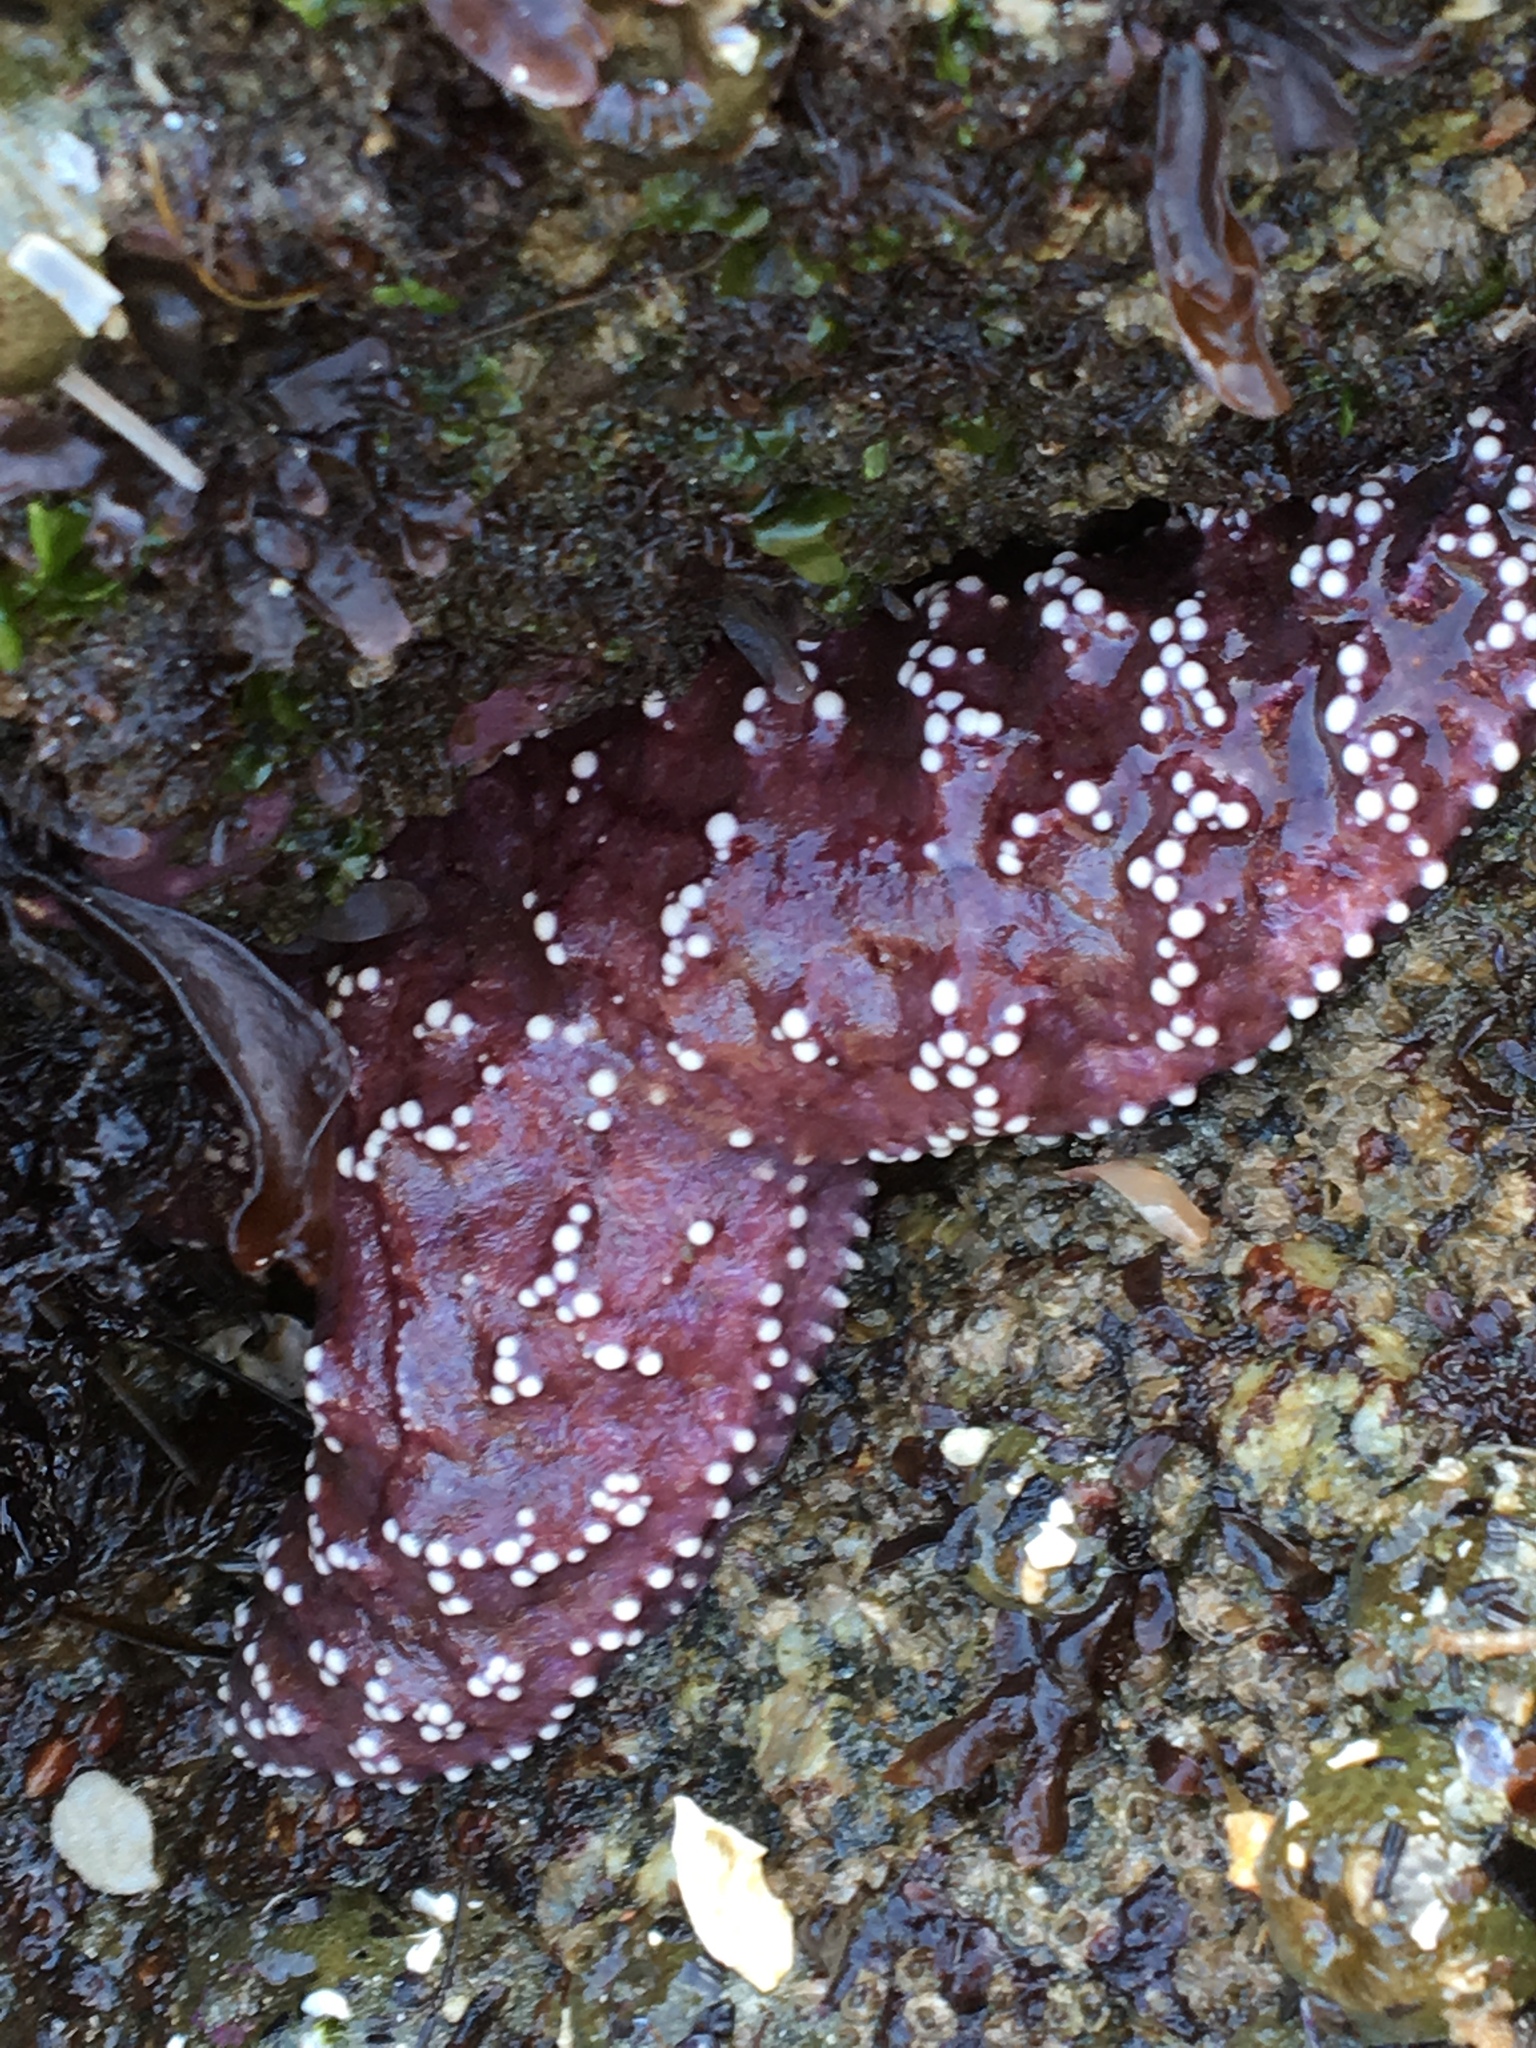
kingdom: Animalia
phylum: Echinodermata
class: Asteroidea
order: Forcipulatida
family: Asteriidae
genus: Pisaster
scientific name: Pisaster ochraceus
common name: Ochre stars
